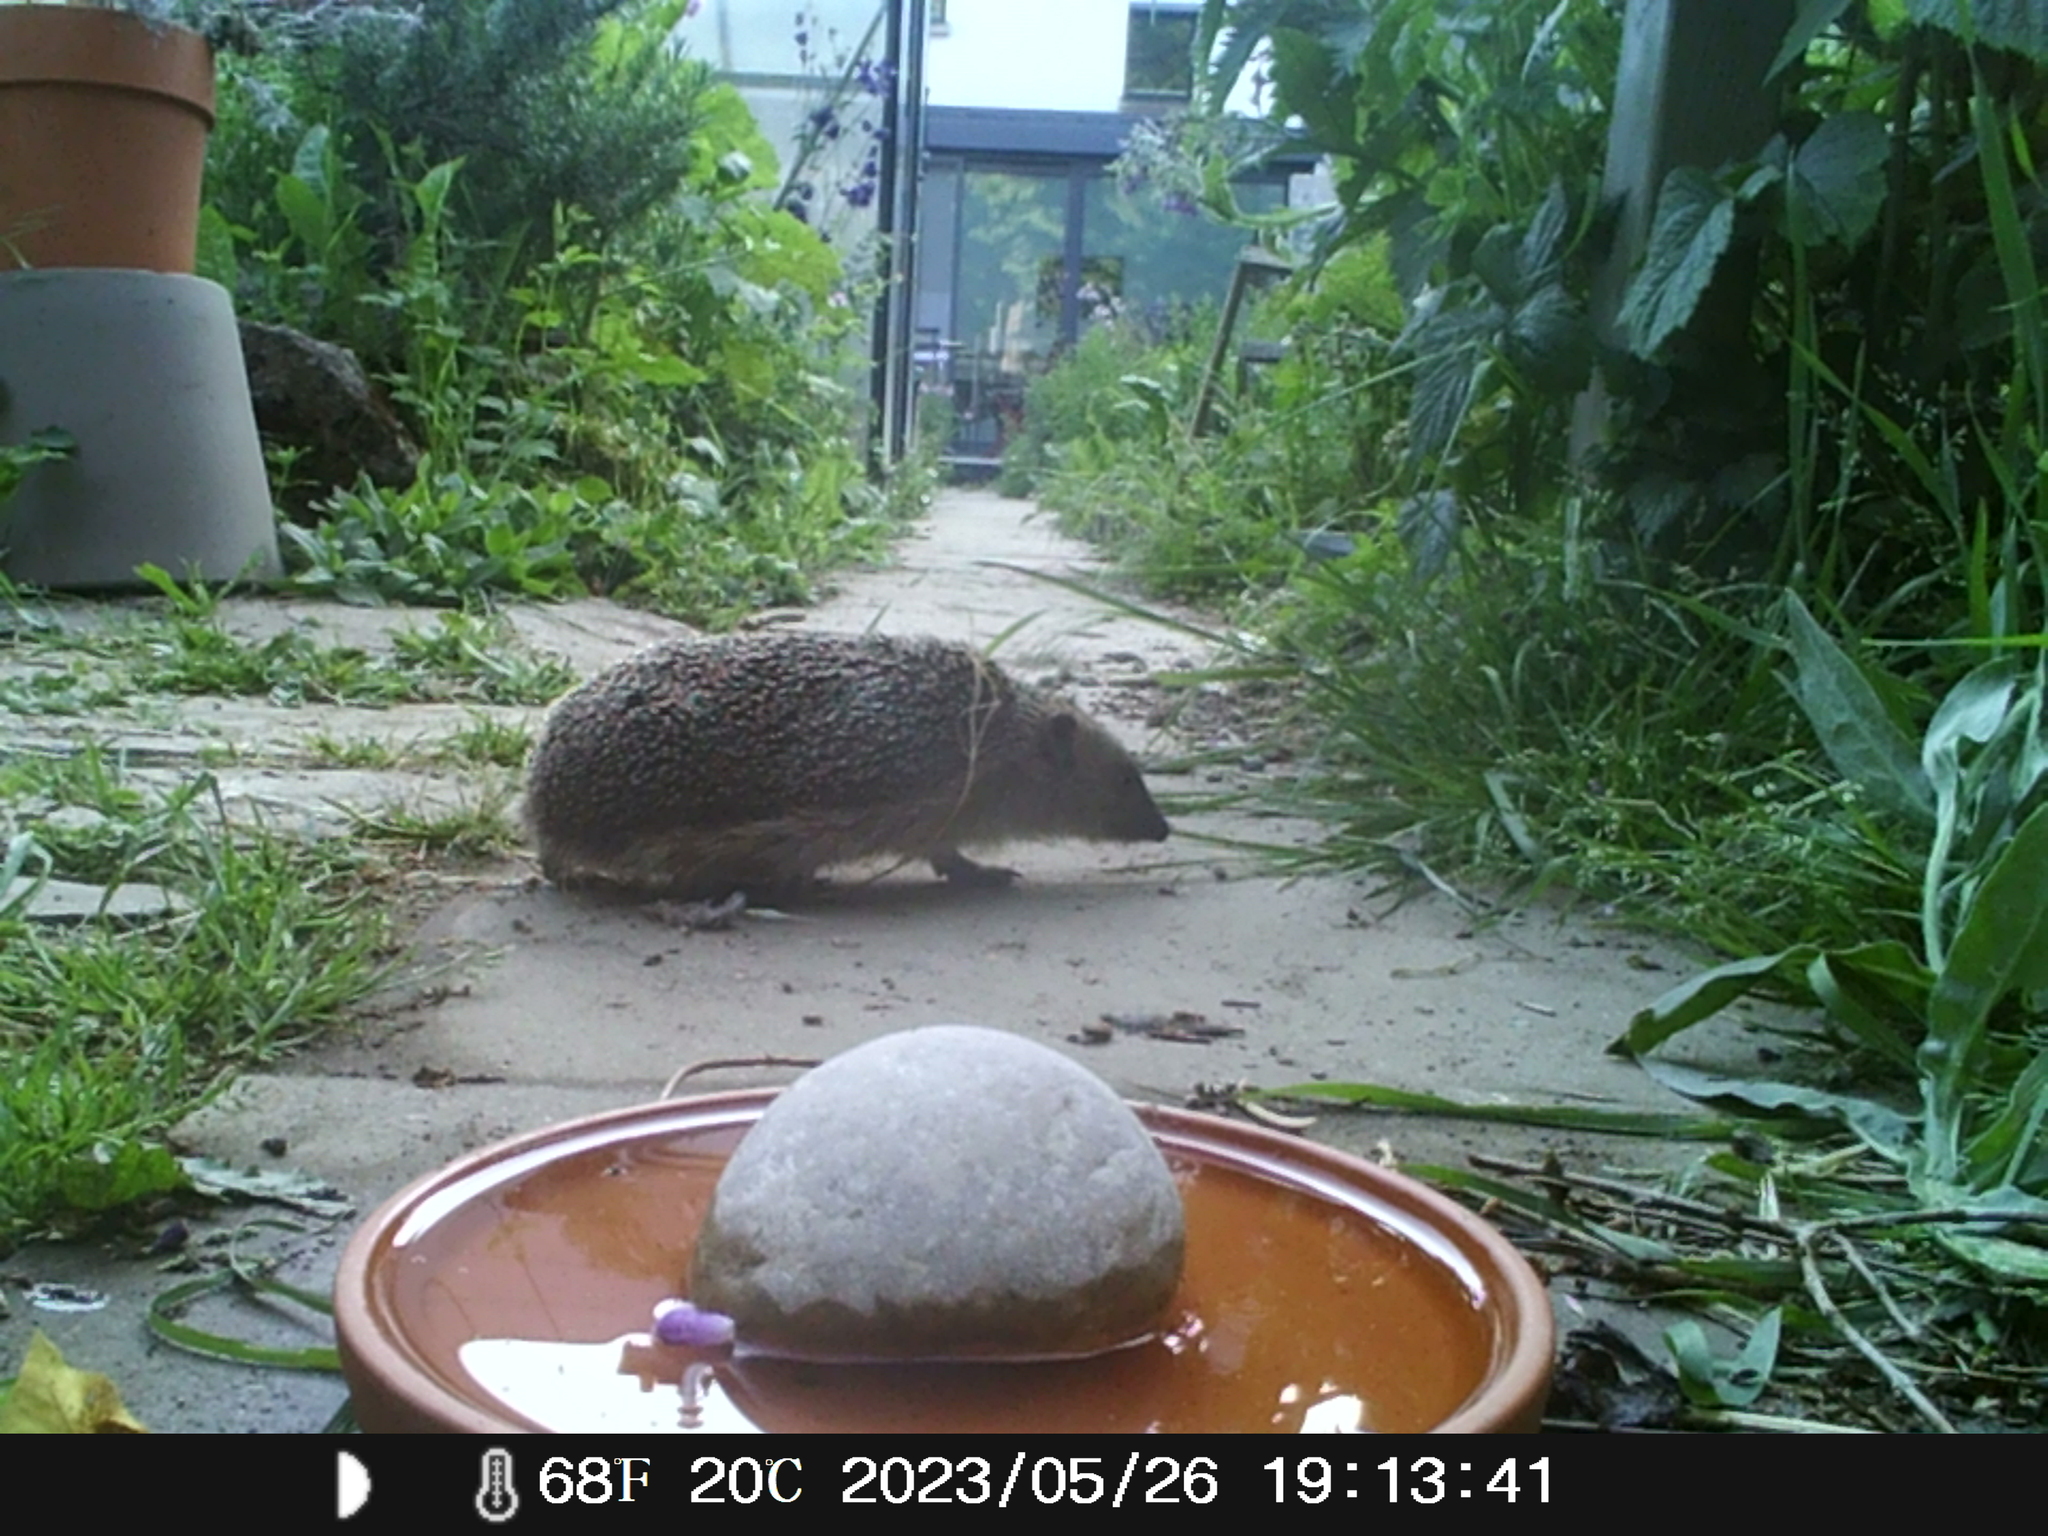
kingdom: Animalia
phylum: Chordata
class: Mammalia
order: Erinaceomorpha
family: Erinaceidae
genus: Erinaceus
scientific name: Erinaceus europaeus
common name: West european hedgehog
